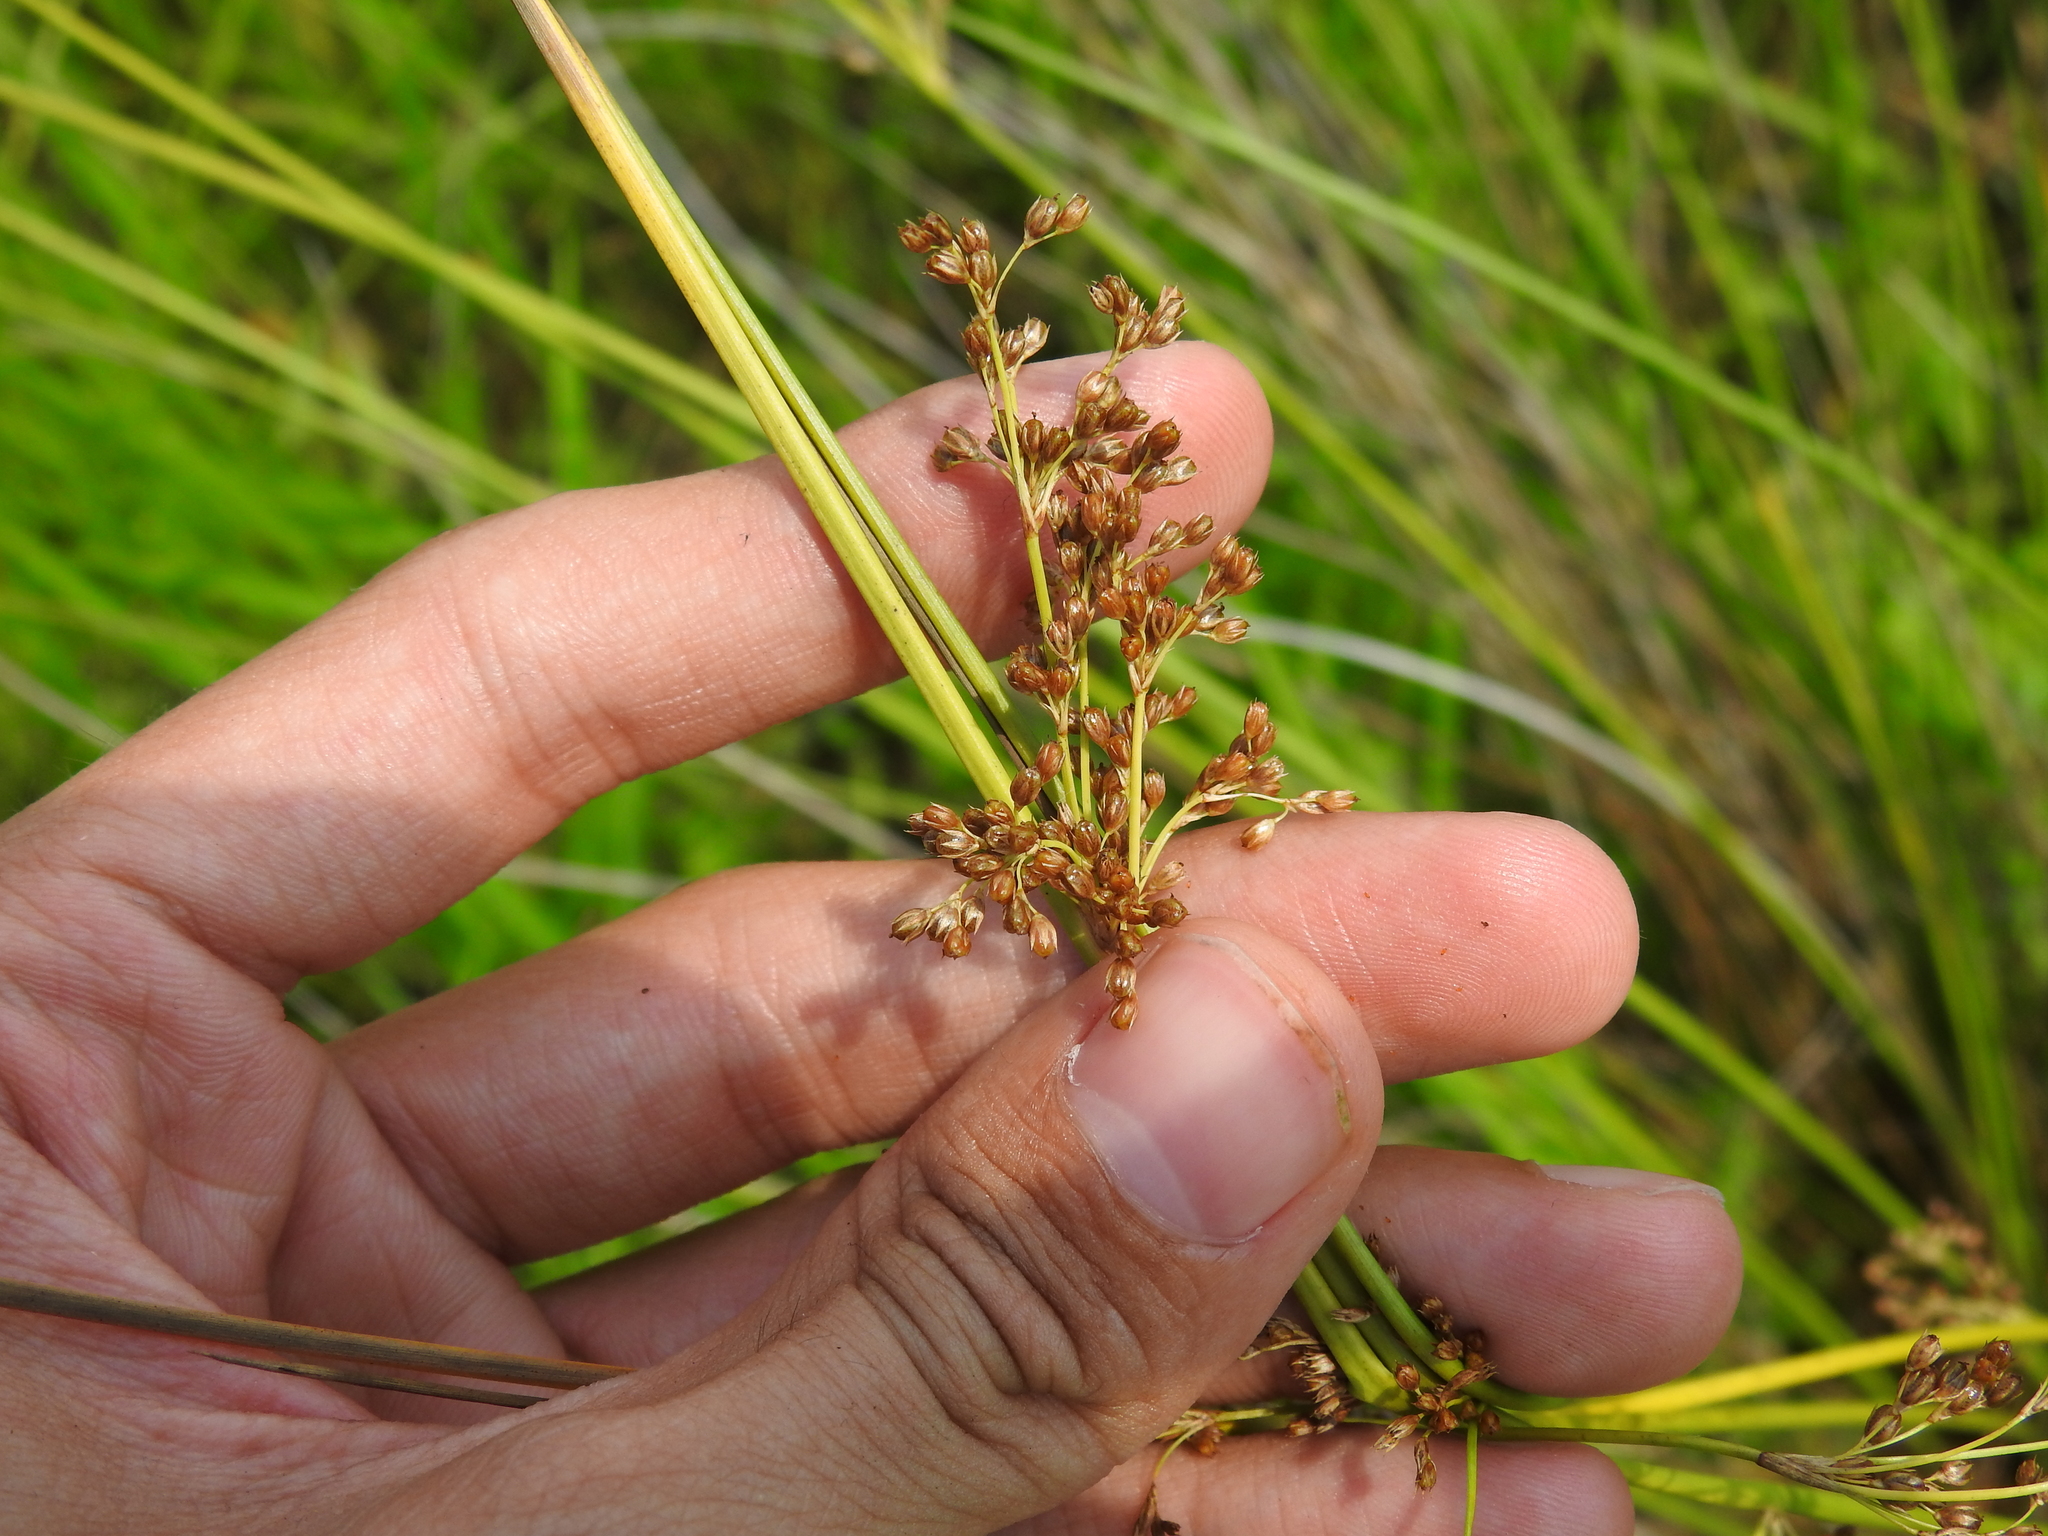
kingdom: Plantae
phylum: Tracheophyta
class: Liliopsida
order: Poales
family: Juncaceae
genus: Juncus
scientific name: Juncus effusus
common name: Soft rush
